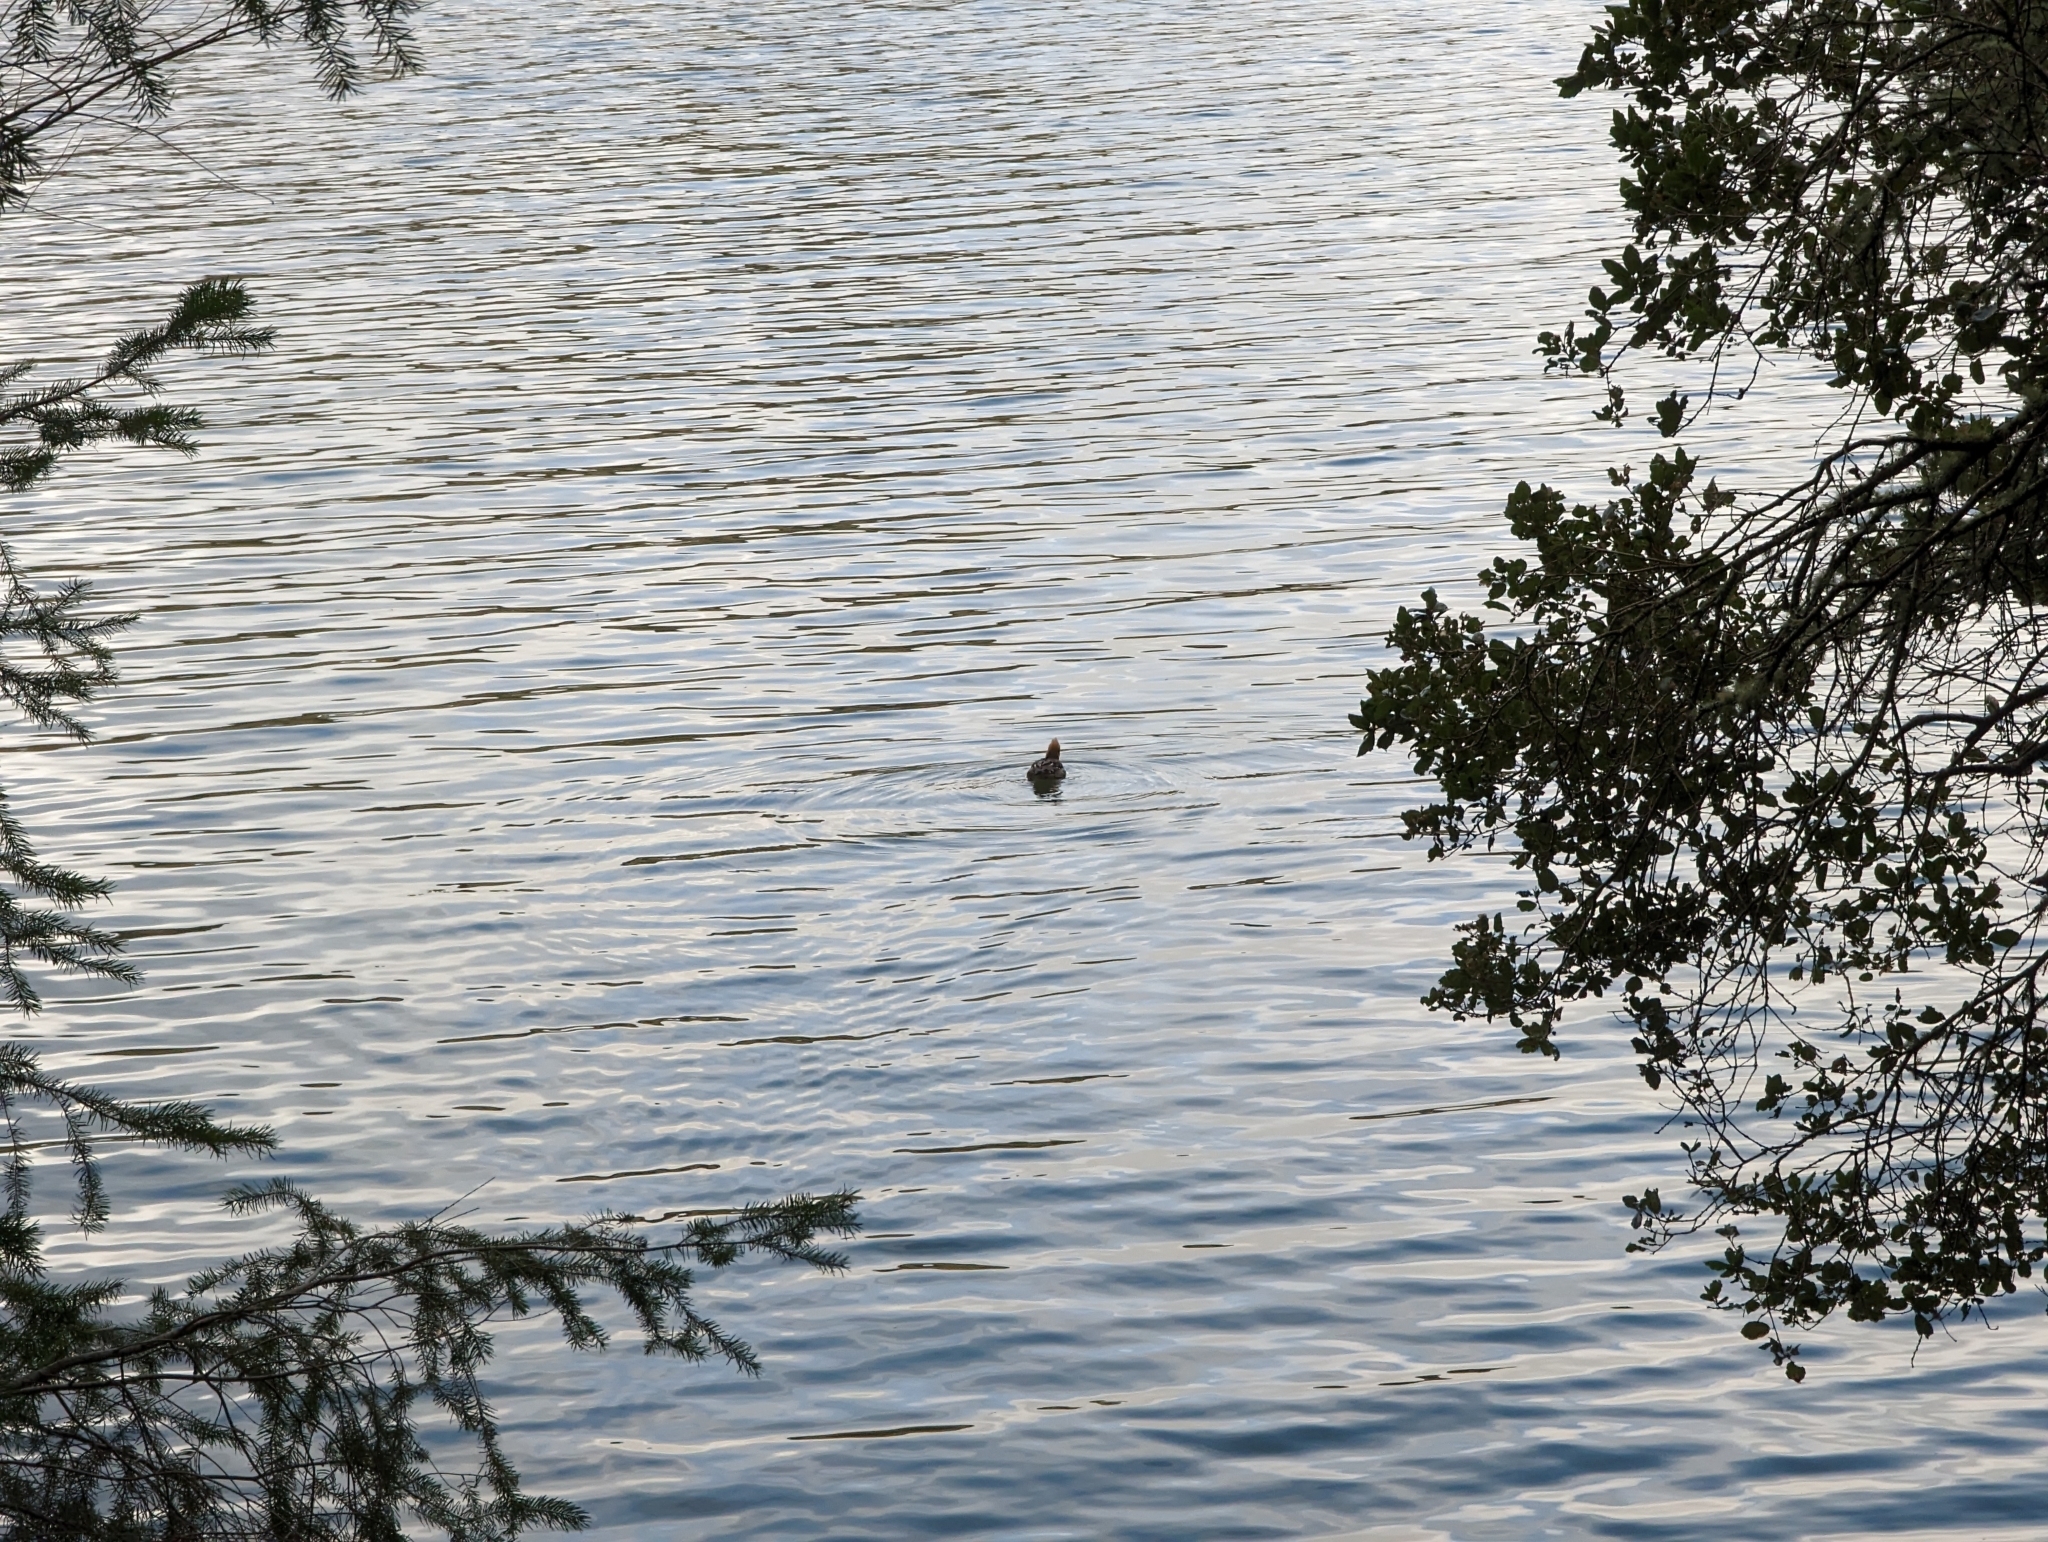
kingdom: Animalia
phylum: Chordata
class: Aves
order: Anseriformes
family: Anatidae
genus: Lophodytes
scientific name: Lophodytes cucullatus
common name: Hooded merganser
